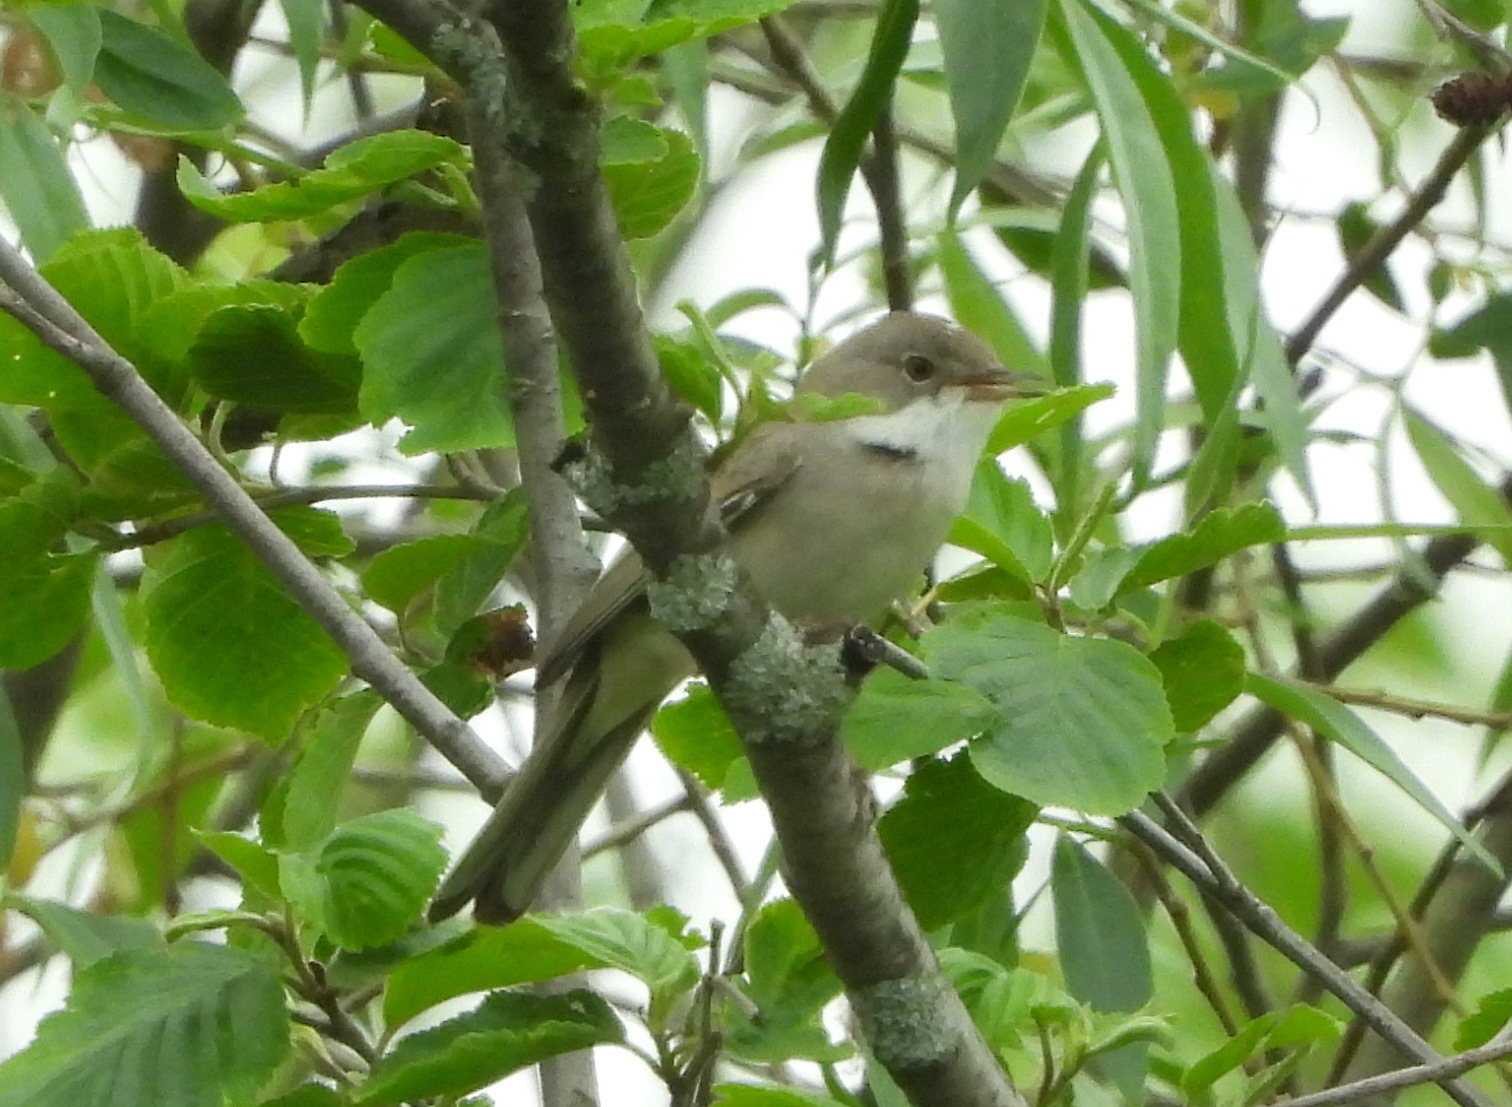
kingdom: Animalia
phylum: Chordata
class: Aves
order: Passeriformes
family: Sylviidae
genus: Sylvia
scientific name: Sylvia communis
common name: Common whitethroat
